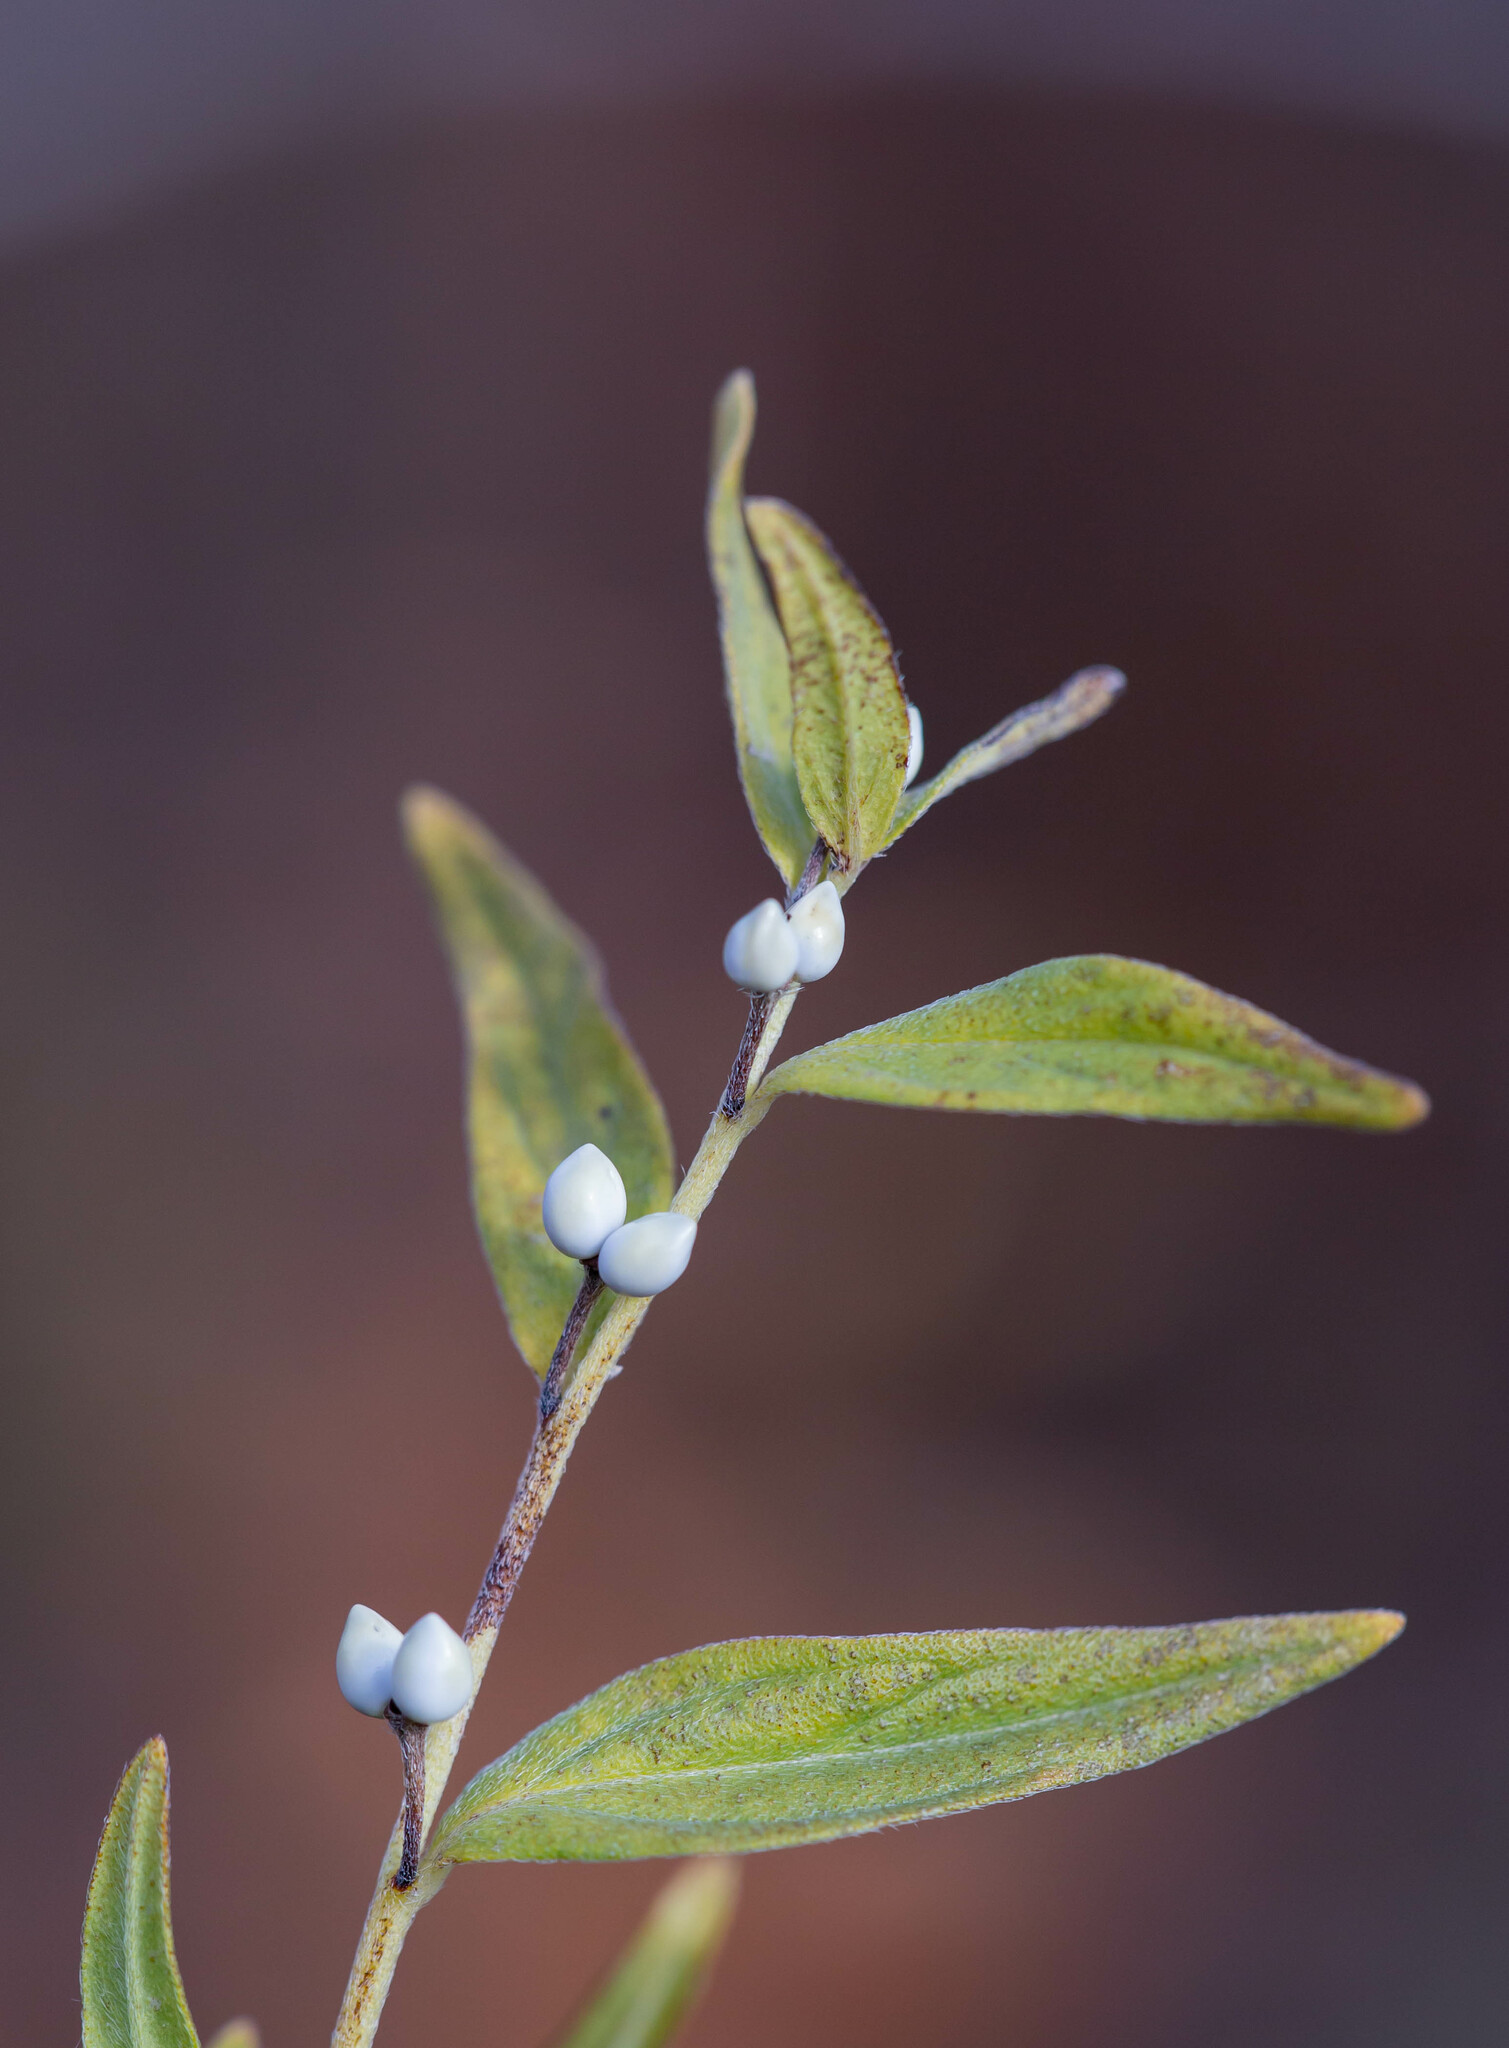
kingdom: Plantae
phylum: Tracheophyta
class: Magnoliopsida
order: Boraginales
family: Boraginaceae
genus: Lithospermum
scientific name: Lithospermum officinale
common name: Common gromwell
